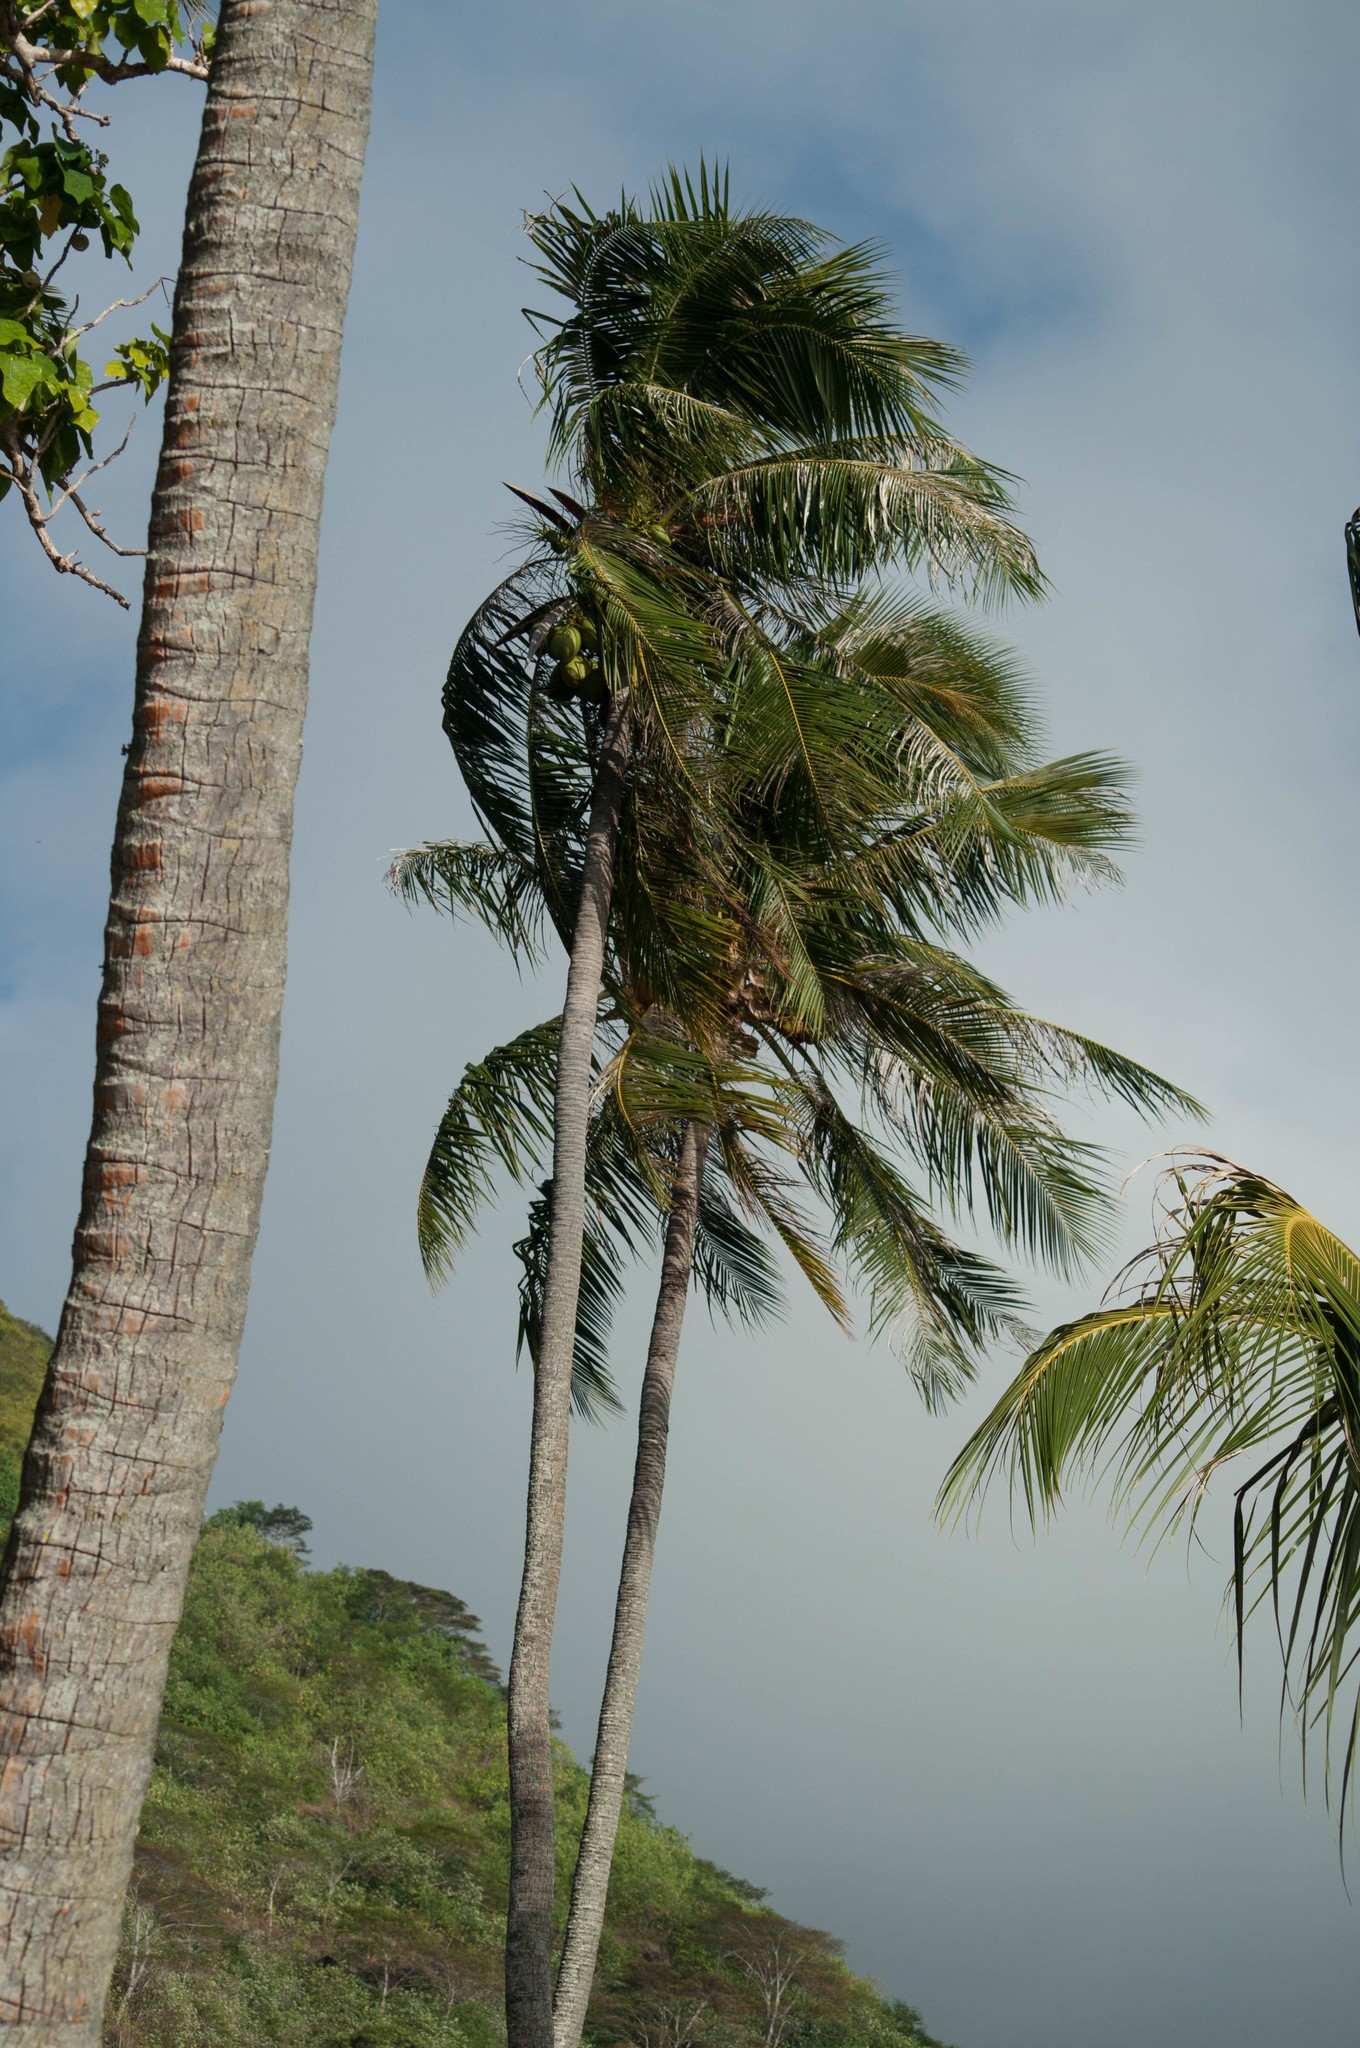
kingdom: Plantae
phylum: Tracheophyta
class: Liliopsida
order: Arecales
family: Arecaceae
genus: Cocos
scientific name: Cocos nucifera
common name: Coconut palm
